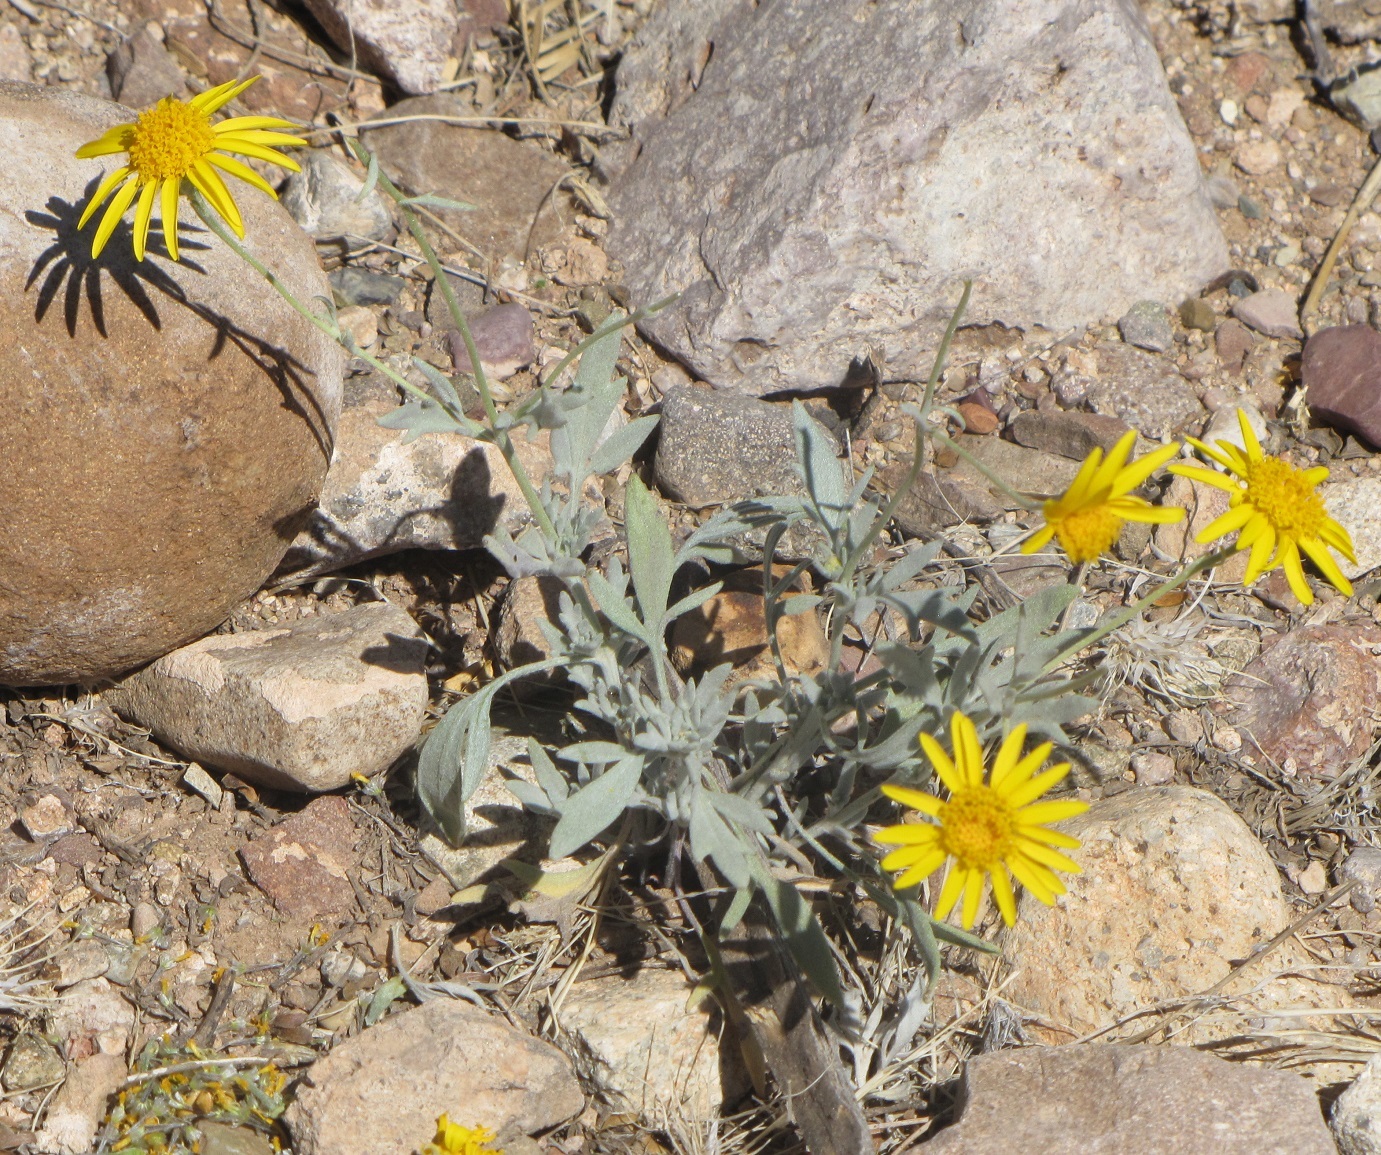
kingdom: Plantae
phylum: Tracheophyta
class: Magnoliopsida
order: Asterales
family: Asteraceae
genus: Picradeniopsis
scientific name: Picradeniopsis absinthifolia
